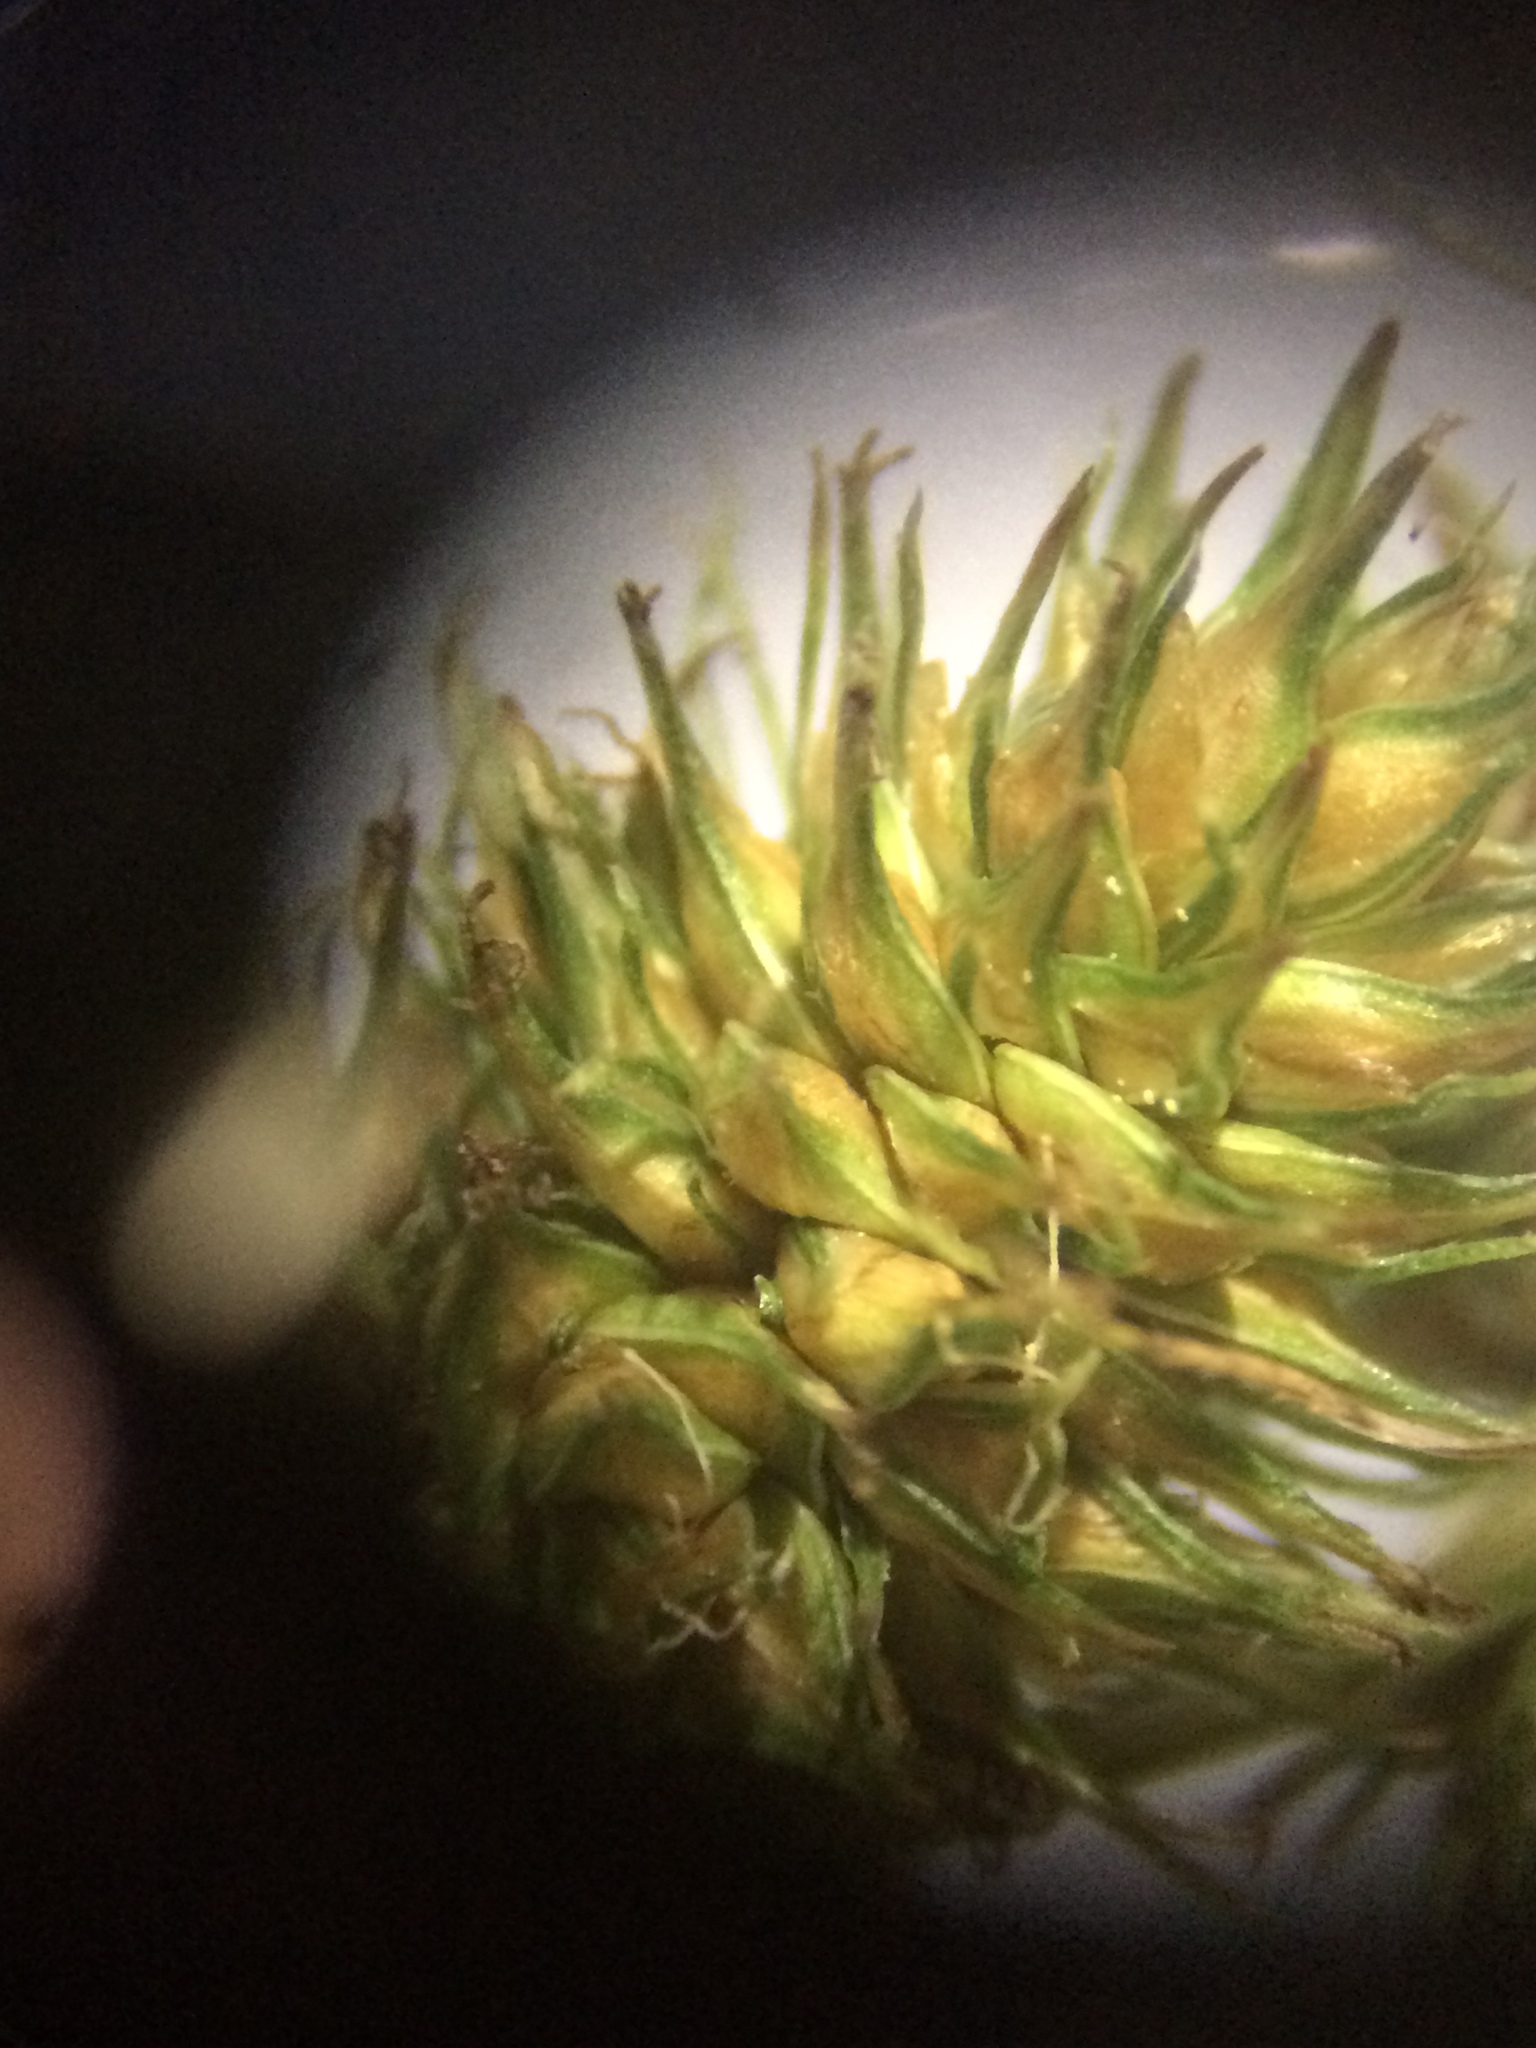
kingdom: Plantae
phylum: Tracheophyta
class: Liliopsida
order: Poales
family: Cyperaceae
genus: Carex
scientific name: Carex vulpinoidea
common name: American fox-sedge
